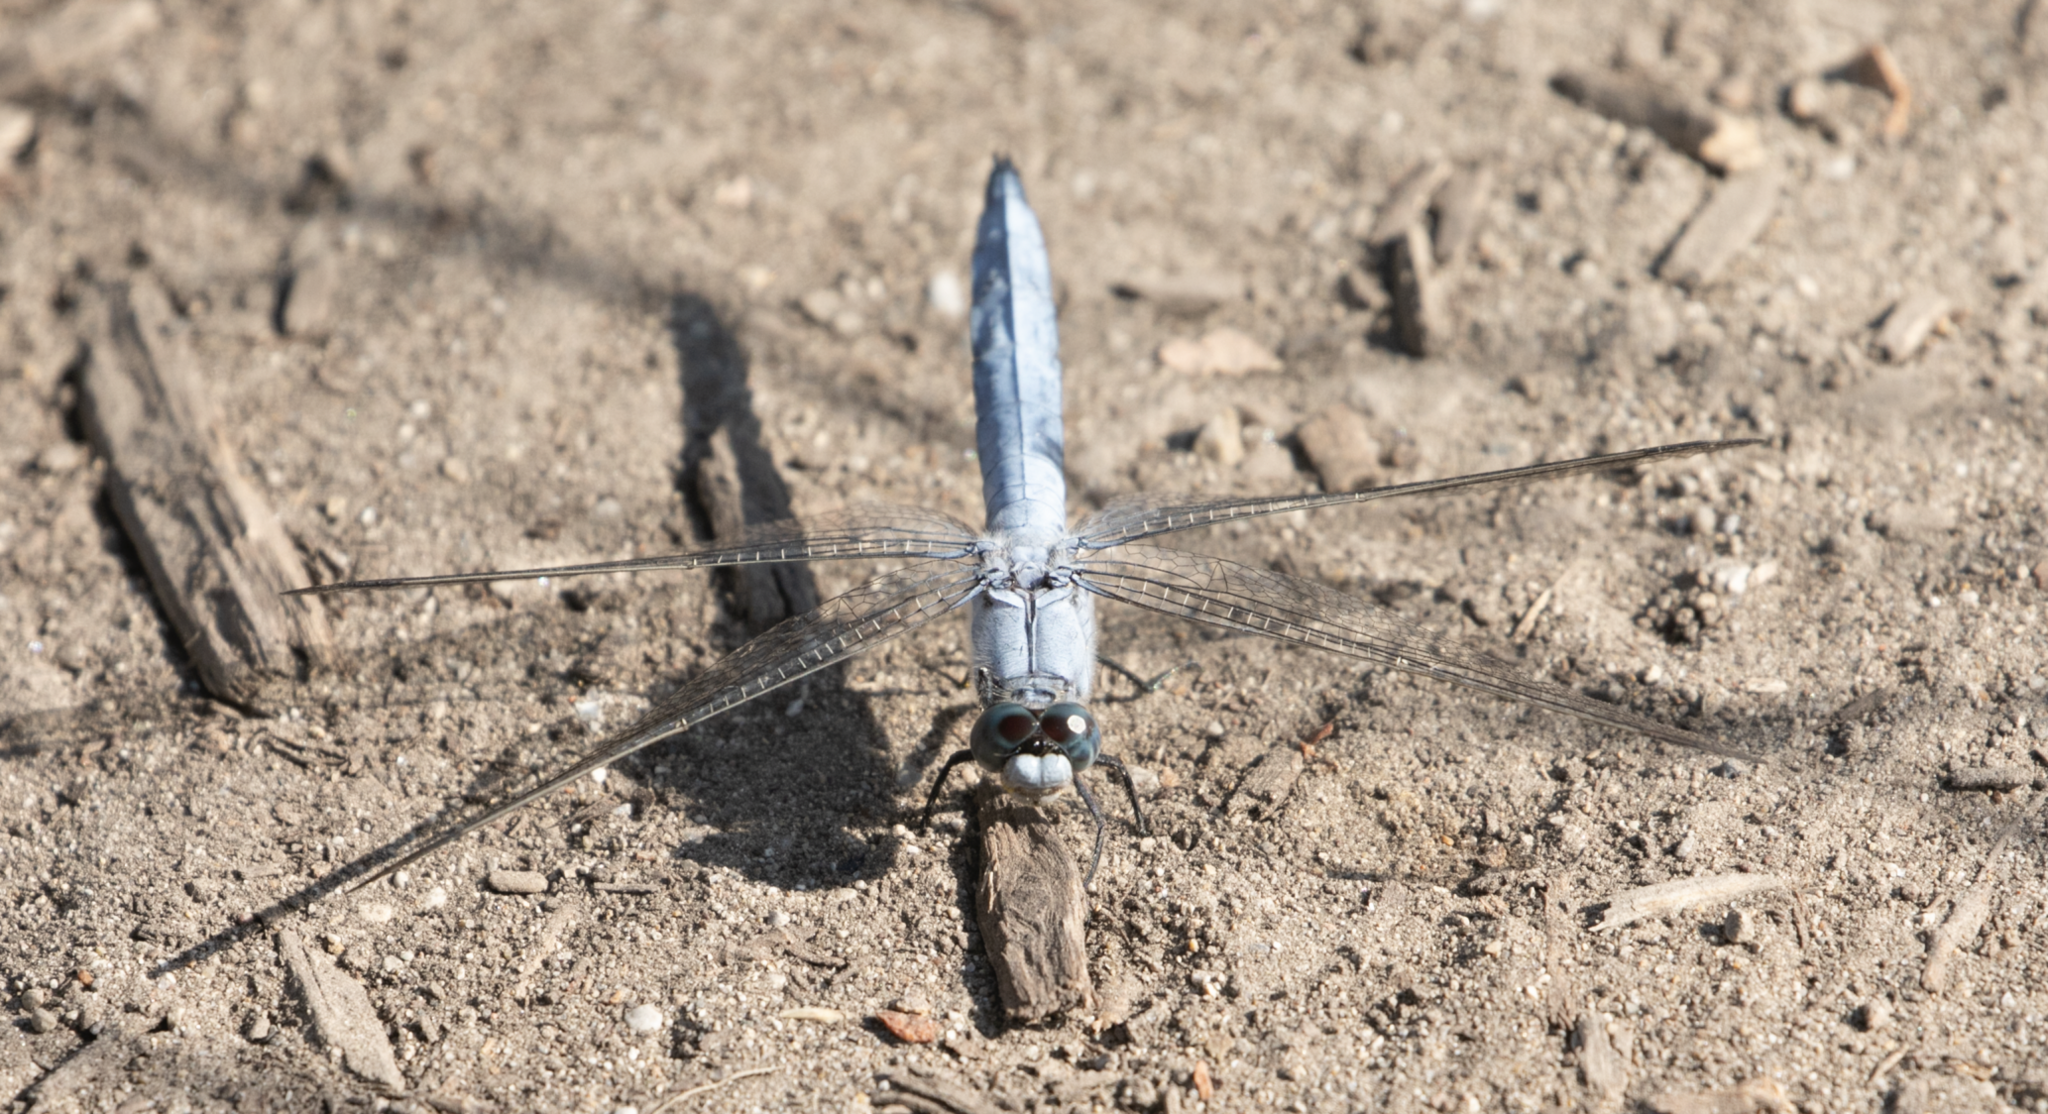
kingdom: Animalia
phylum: Arthropoda
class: Insecta
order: Odonata
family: Libellulidae
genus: Orthetrum
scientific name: Orthetrum brunneum
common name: Southern skimmer
